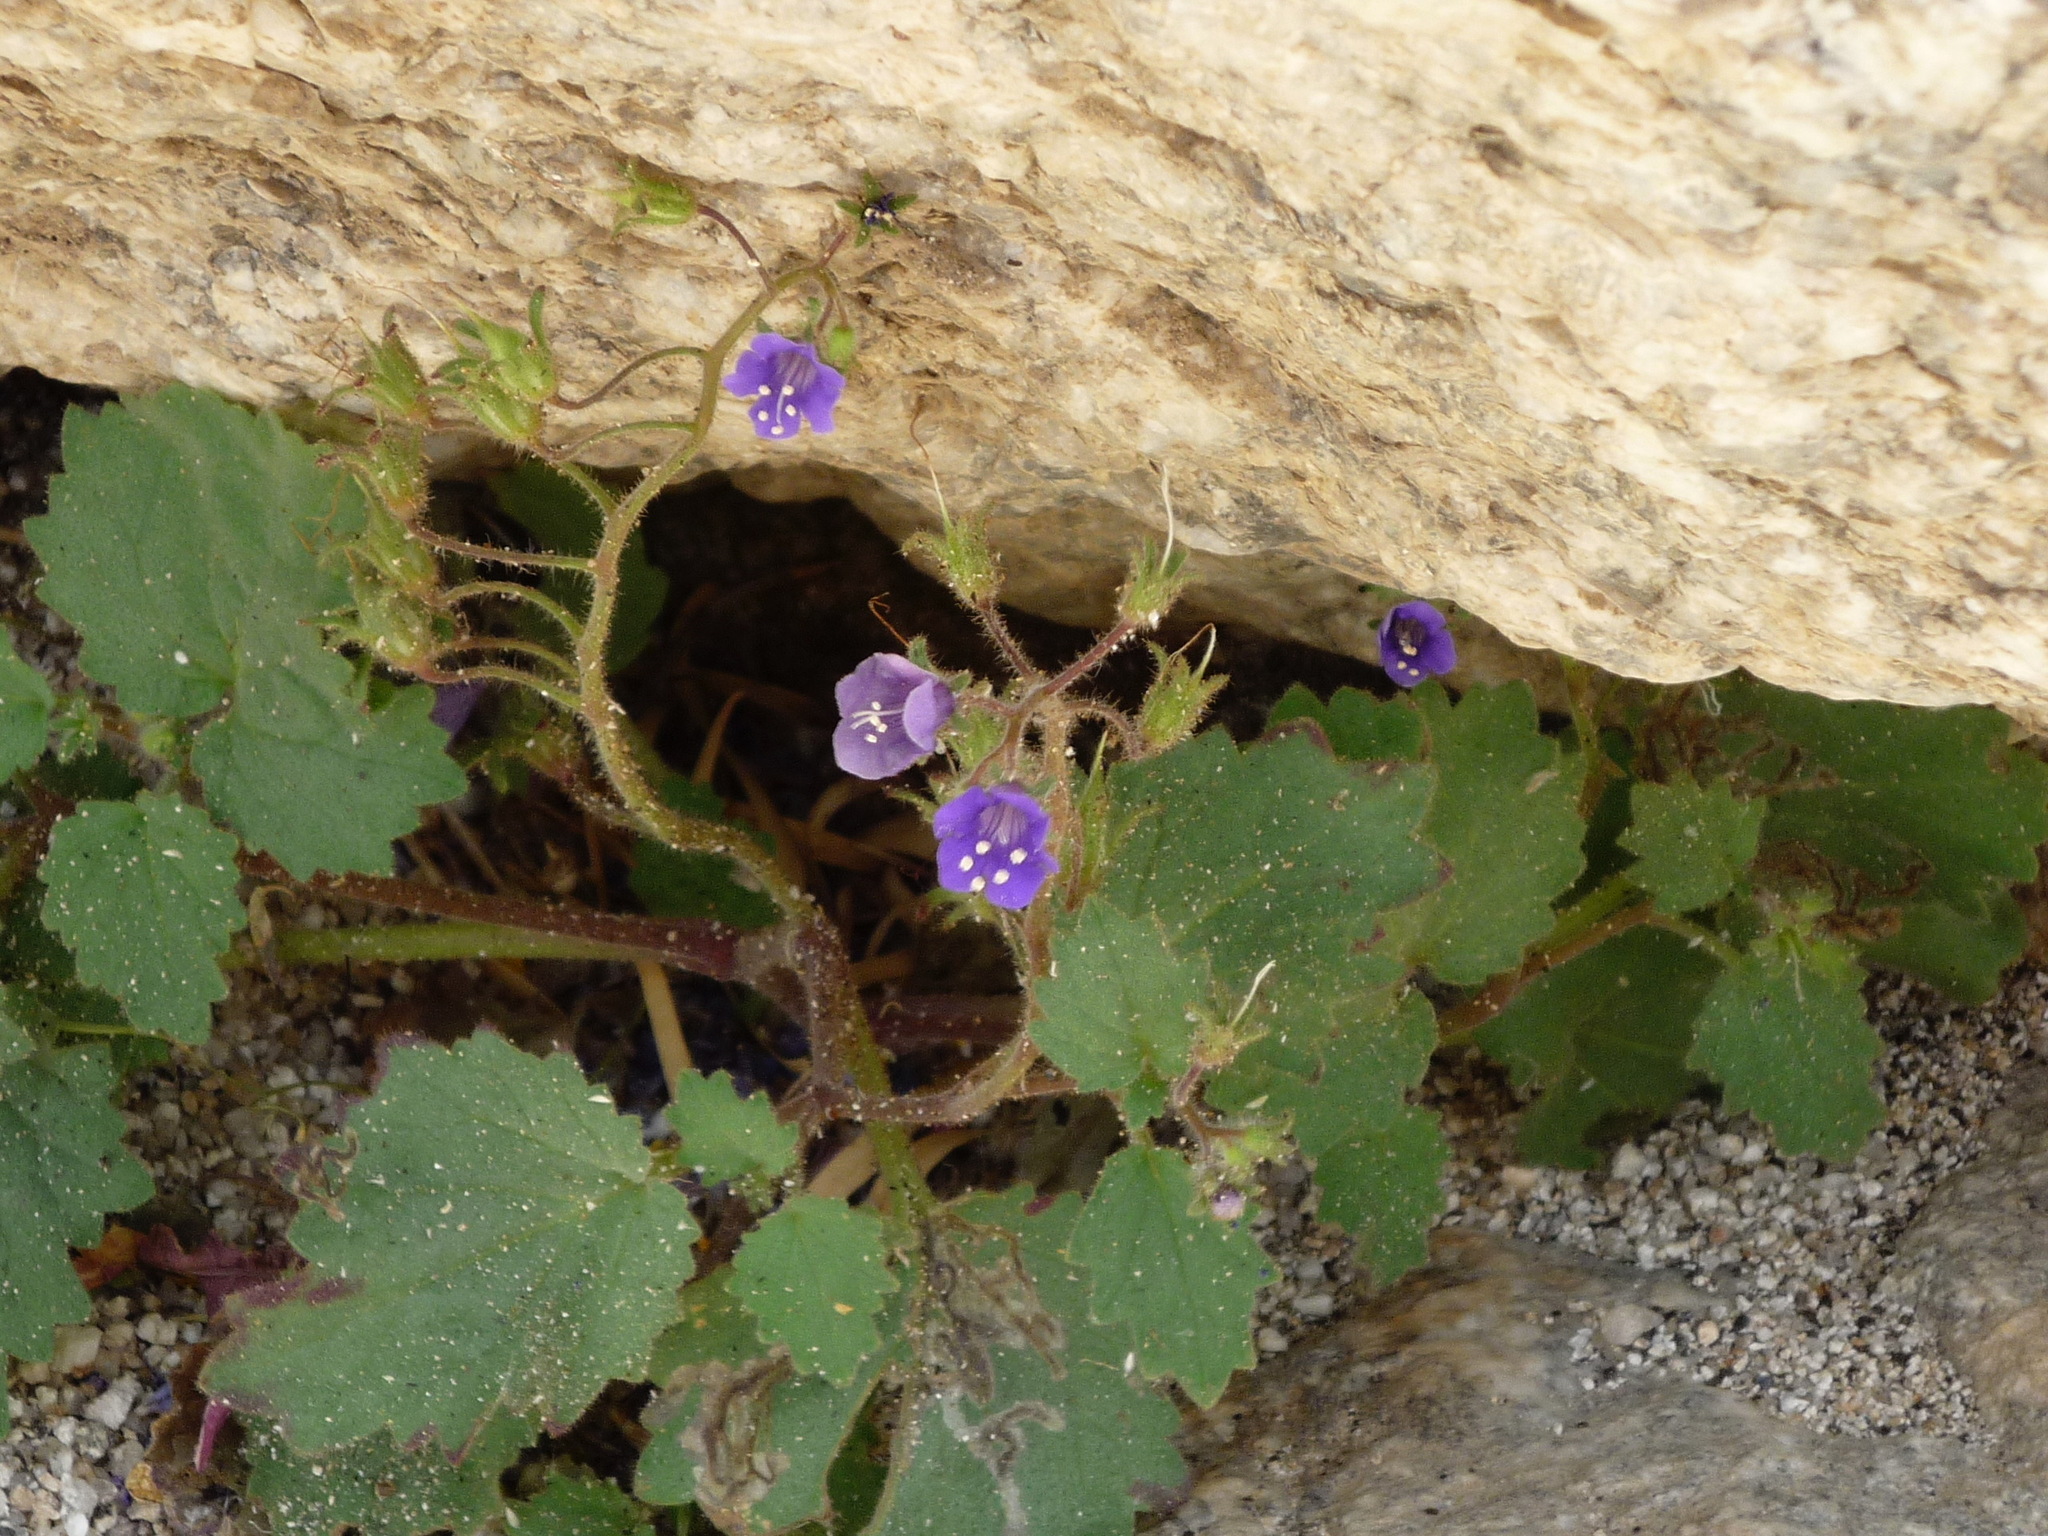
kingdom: Plantae
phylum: Tracheophyta
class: Magnoliopsida
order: Boraginales
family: Hydrophyllaceae
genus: Phacelia
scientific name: Phacelia minor
